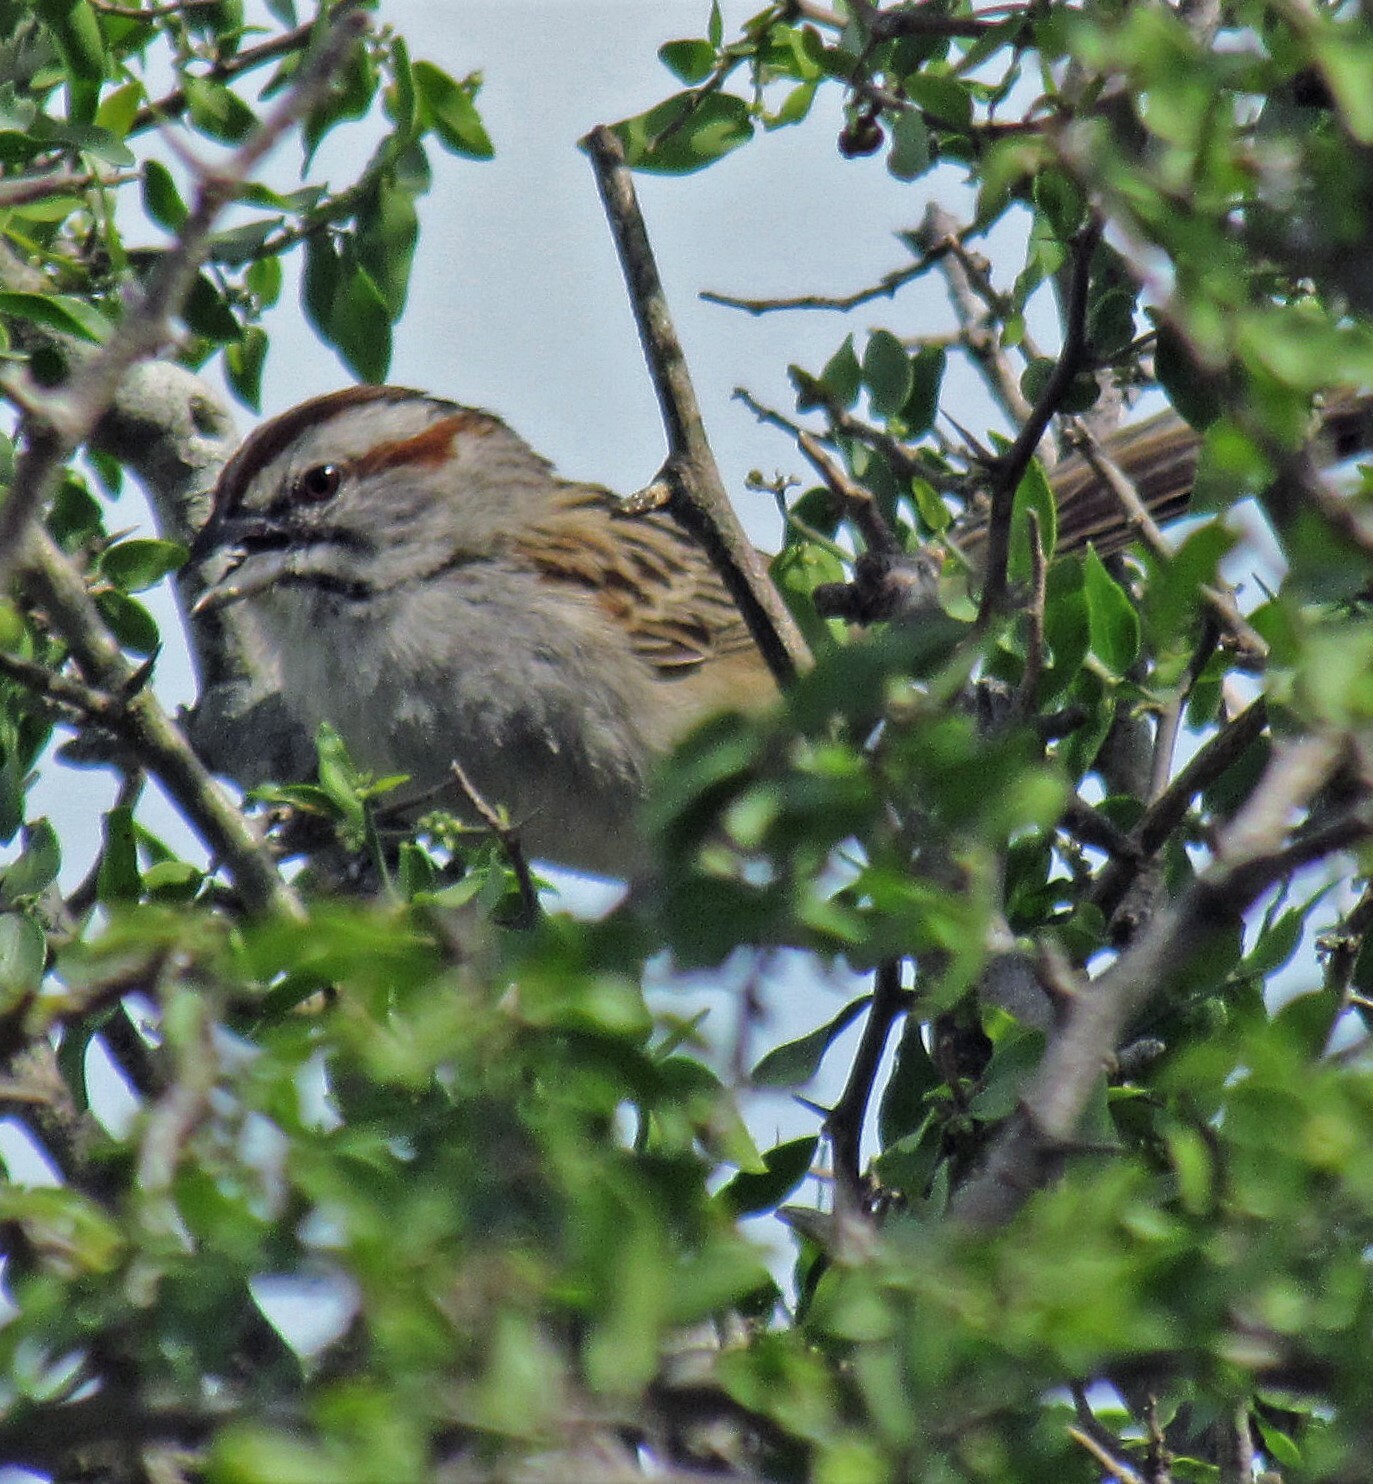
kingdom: Animalia
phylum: Chordata
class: Aves
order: Passeriformes
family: Passerellidae
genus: Rhynchospiza
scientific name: Rhynchospiza strigiceps
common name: Stripe-capped sparrow
